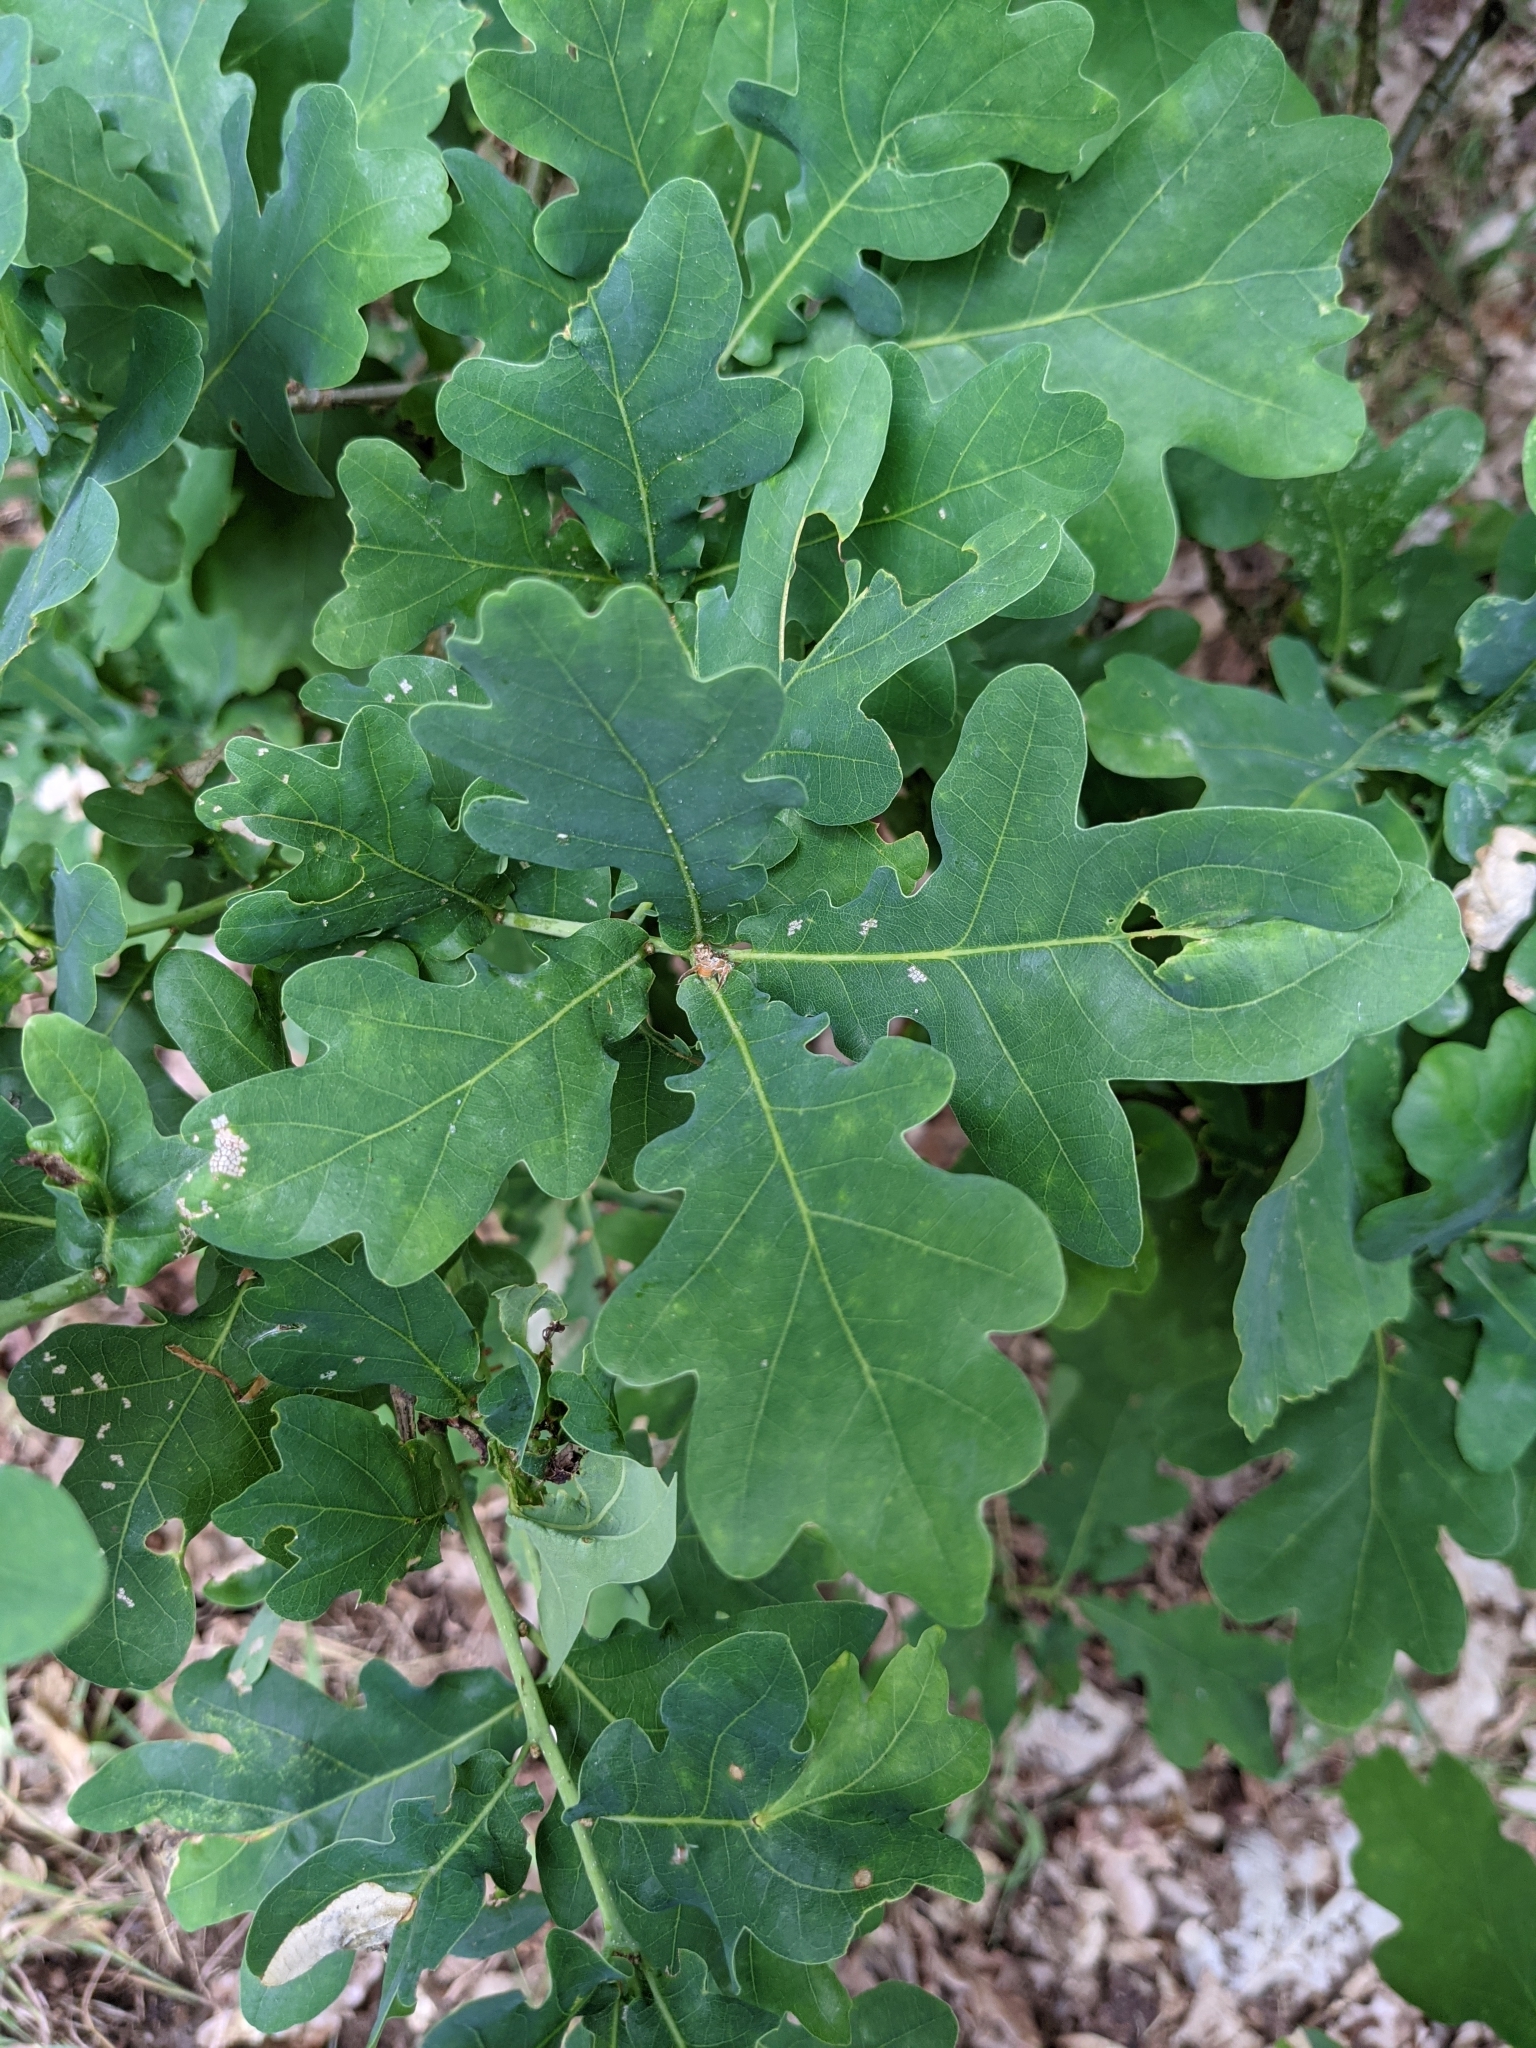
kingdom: Plantae
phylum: Tracheophyta
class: Magnoliopsida
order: Fagales
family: Fagaceae
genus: Quercus
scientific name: Quercus robur
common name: Pedunculate oak
